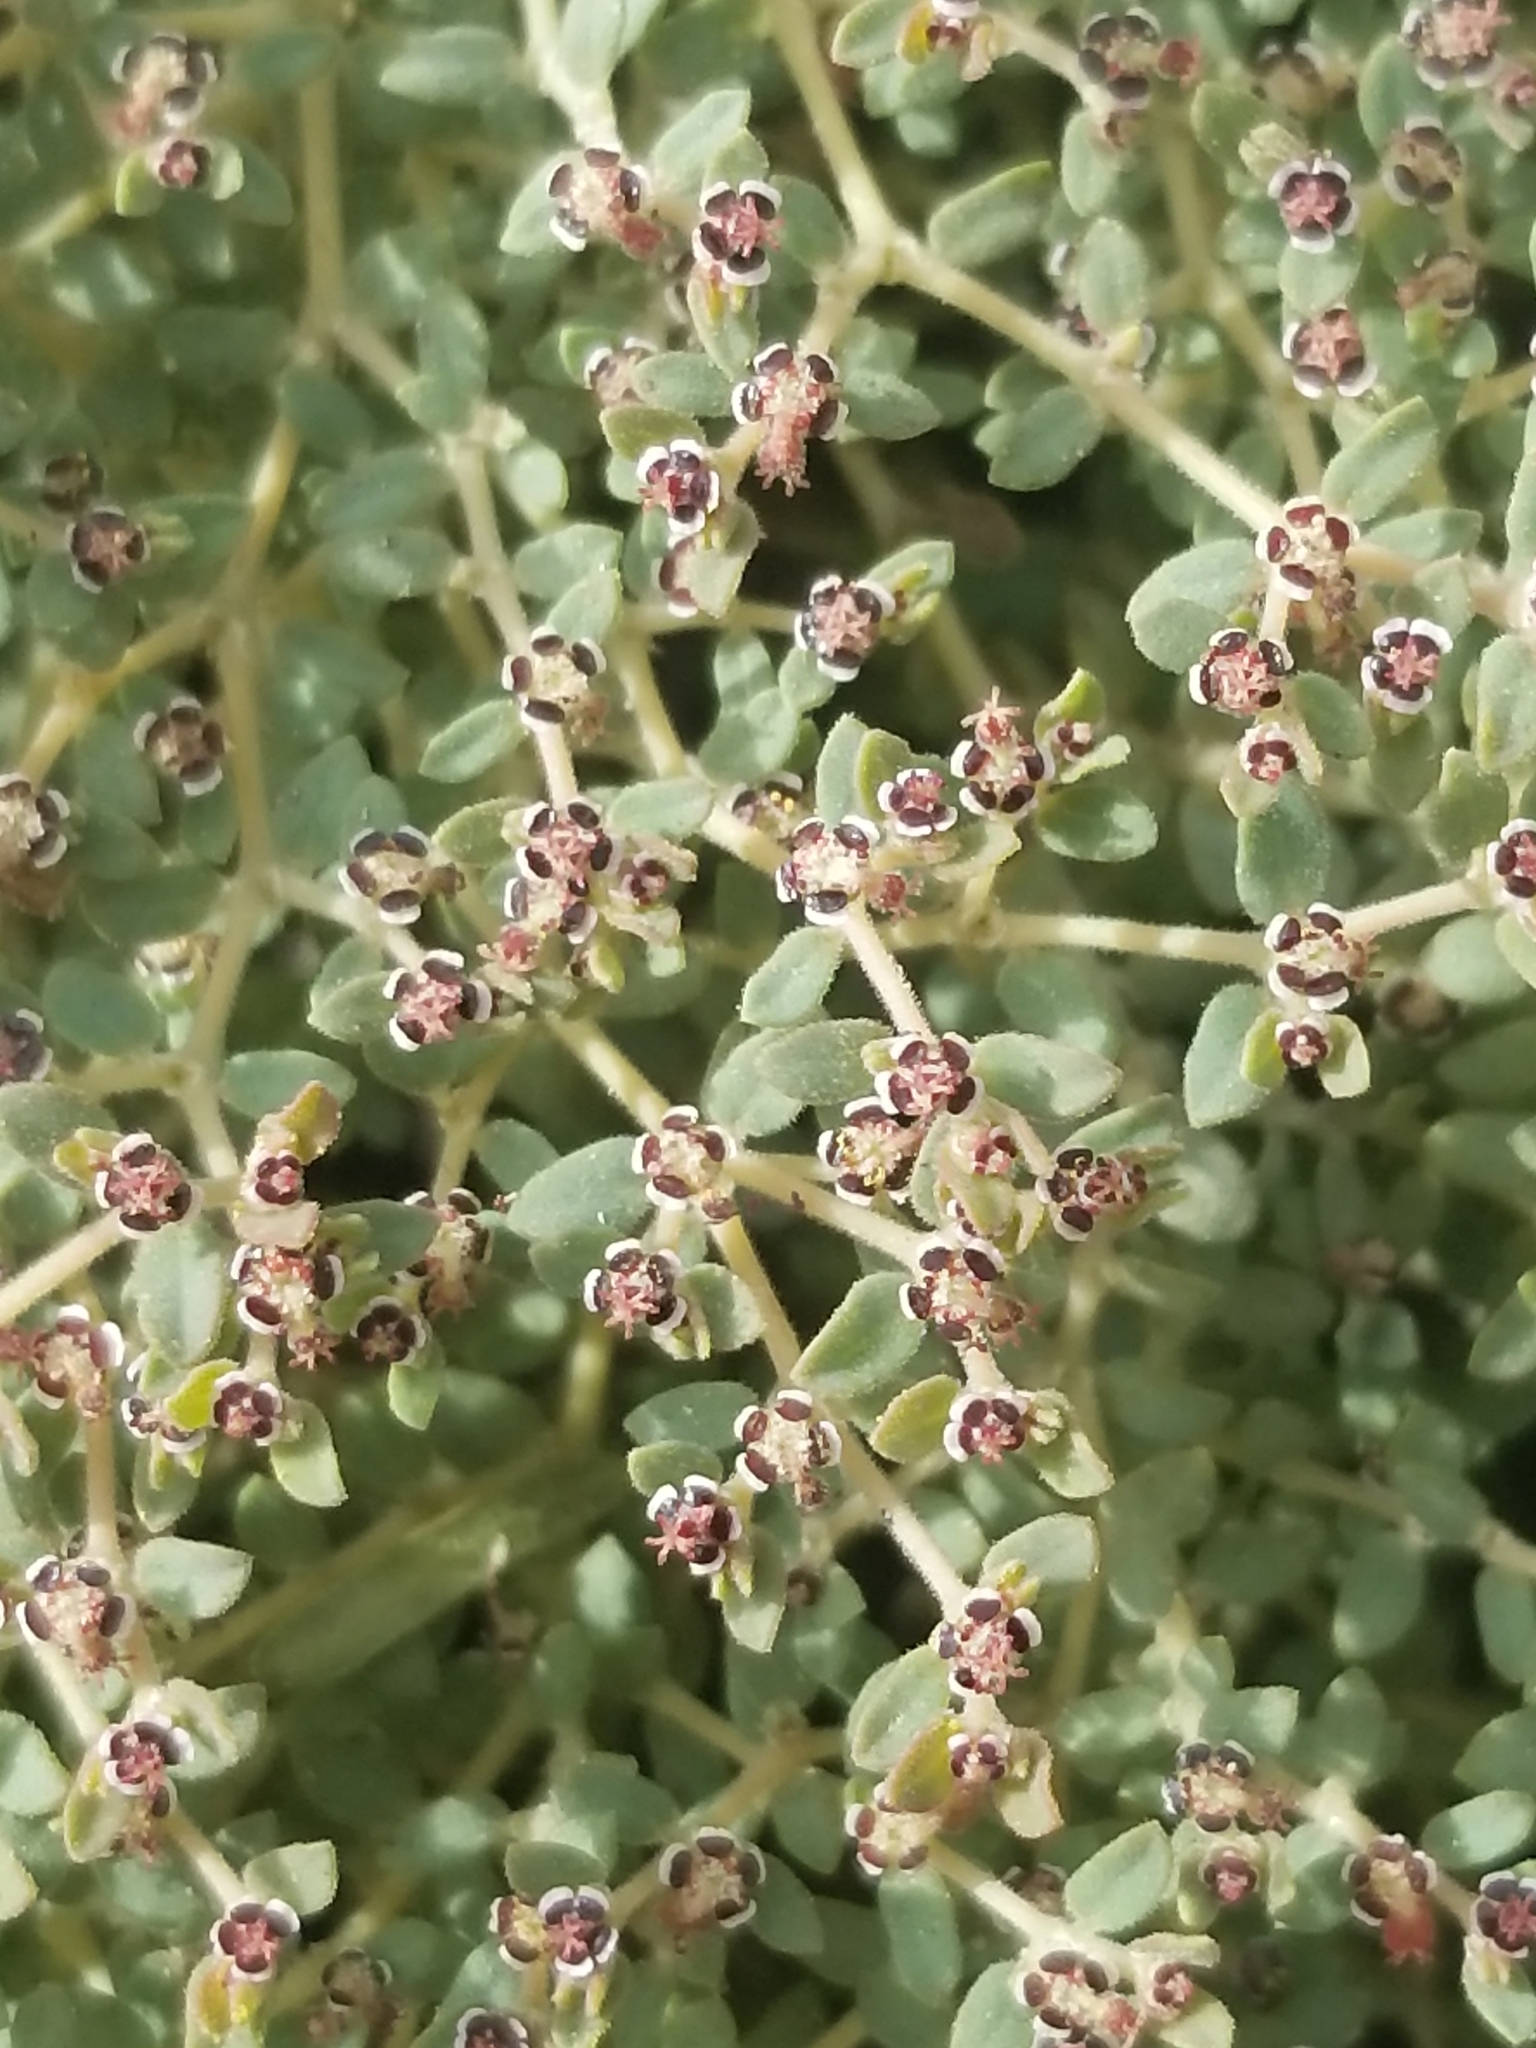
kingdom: Plantae
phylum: Tracheophyta
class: Magnoliopsida
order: Malpighiales
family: Euphorbiaceae
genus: Euphorbia
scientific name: Euphorbia polycarpa
